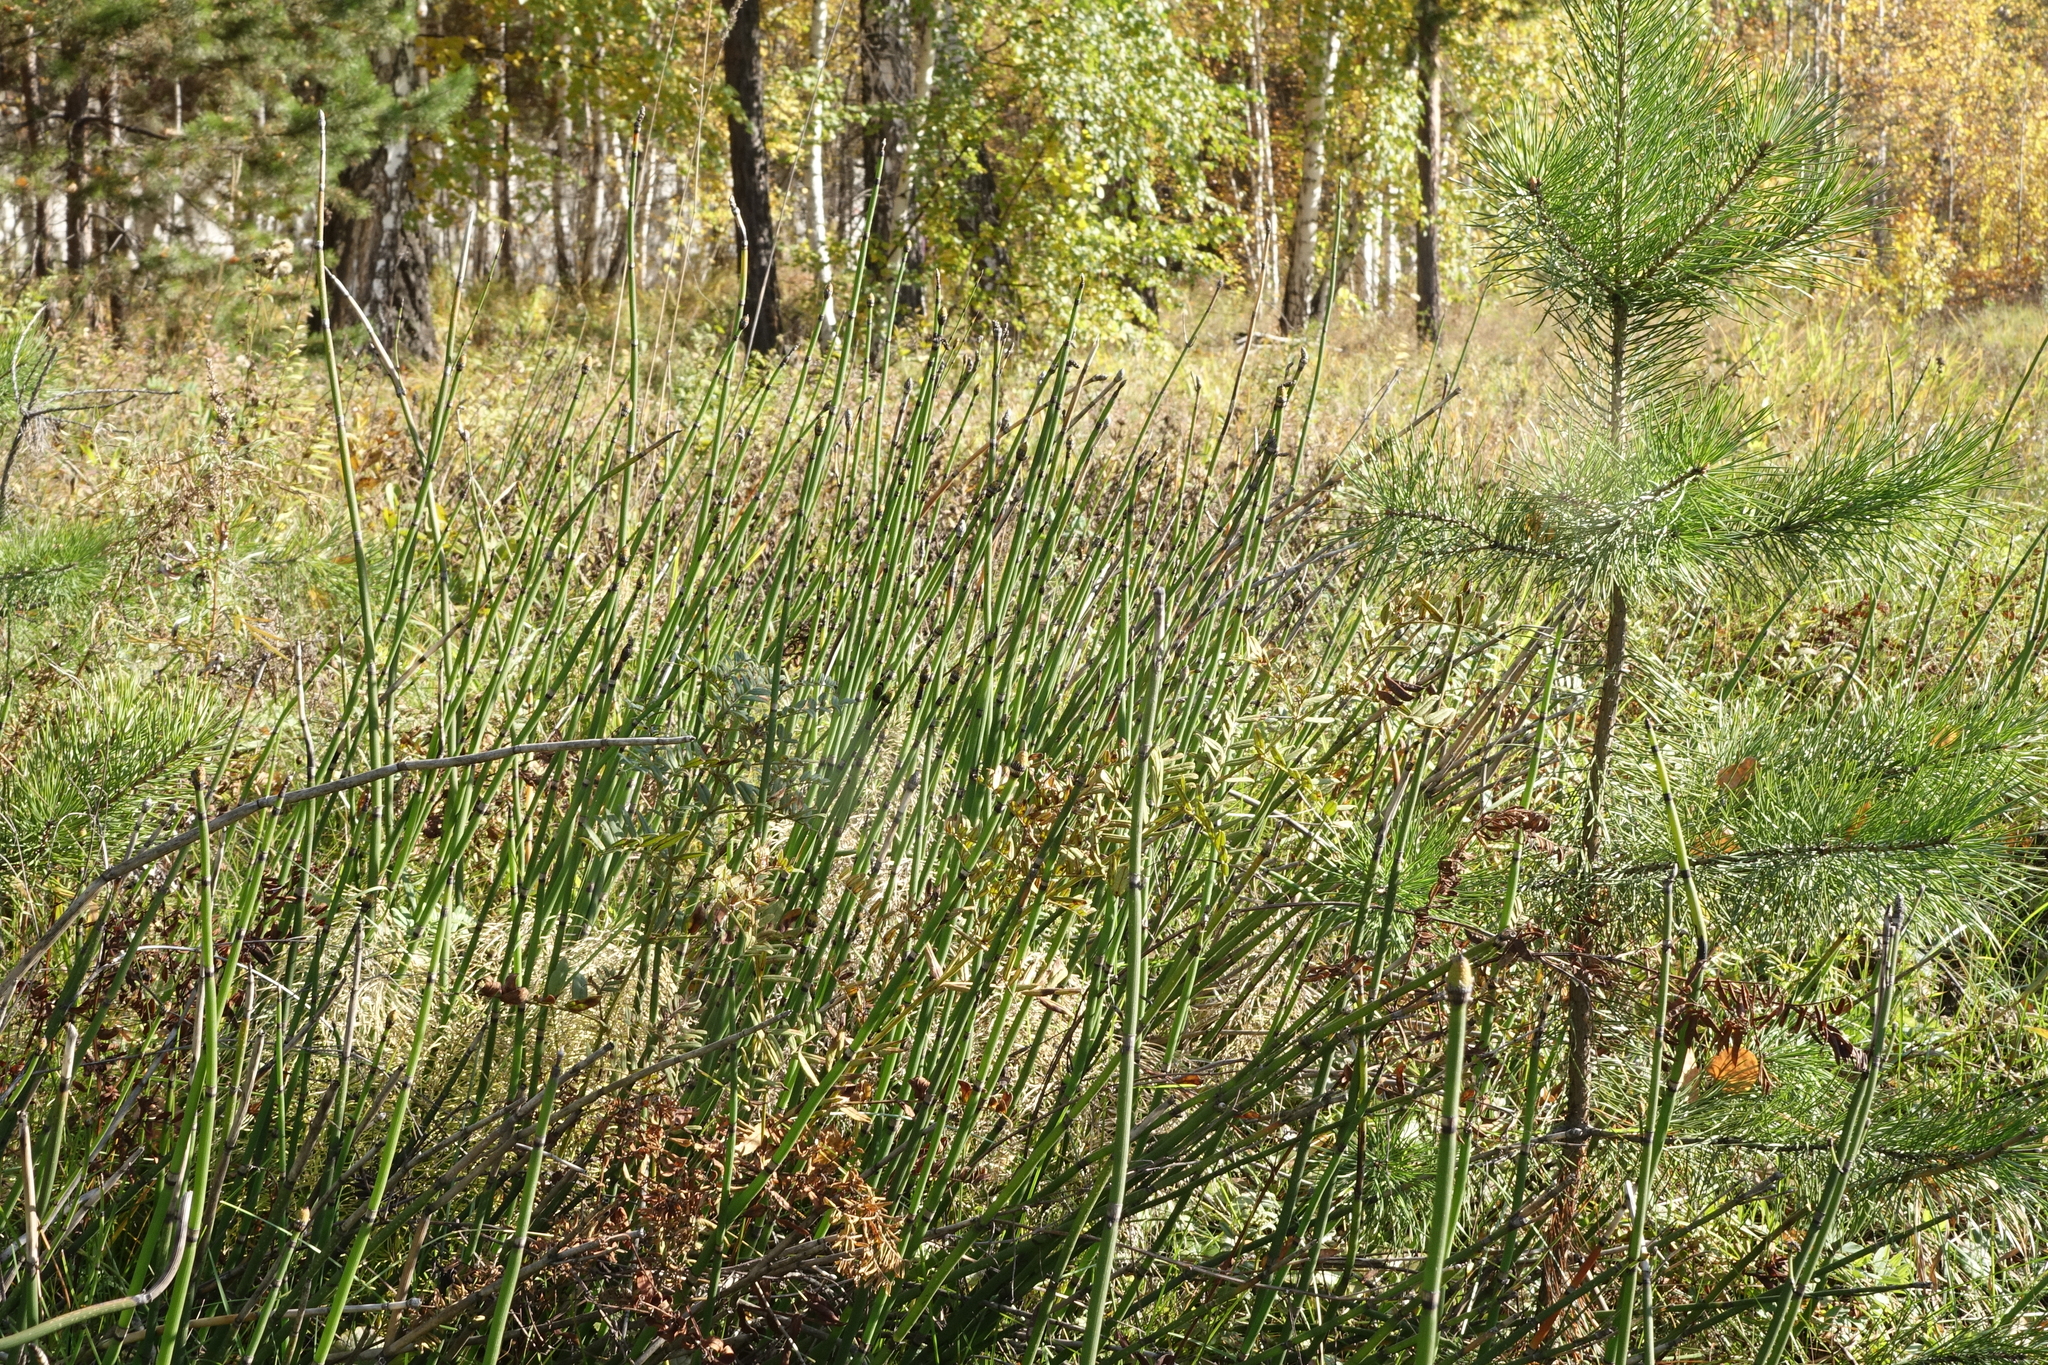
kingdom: Plantae
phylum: Tracheophyta
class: Polypodiopsida
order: Equisetales
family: Equisetaceae
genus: Equisetum
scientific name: Equisetum hyemale
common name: Rough horsetail
